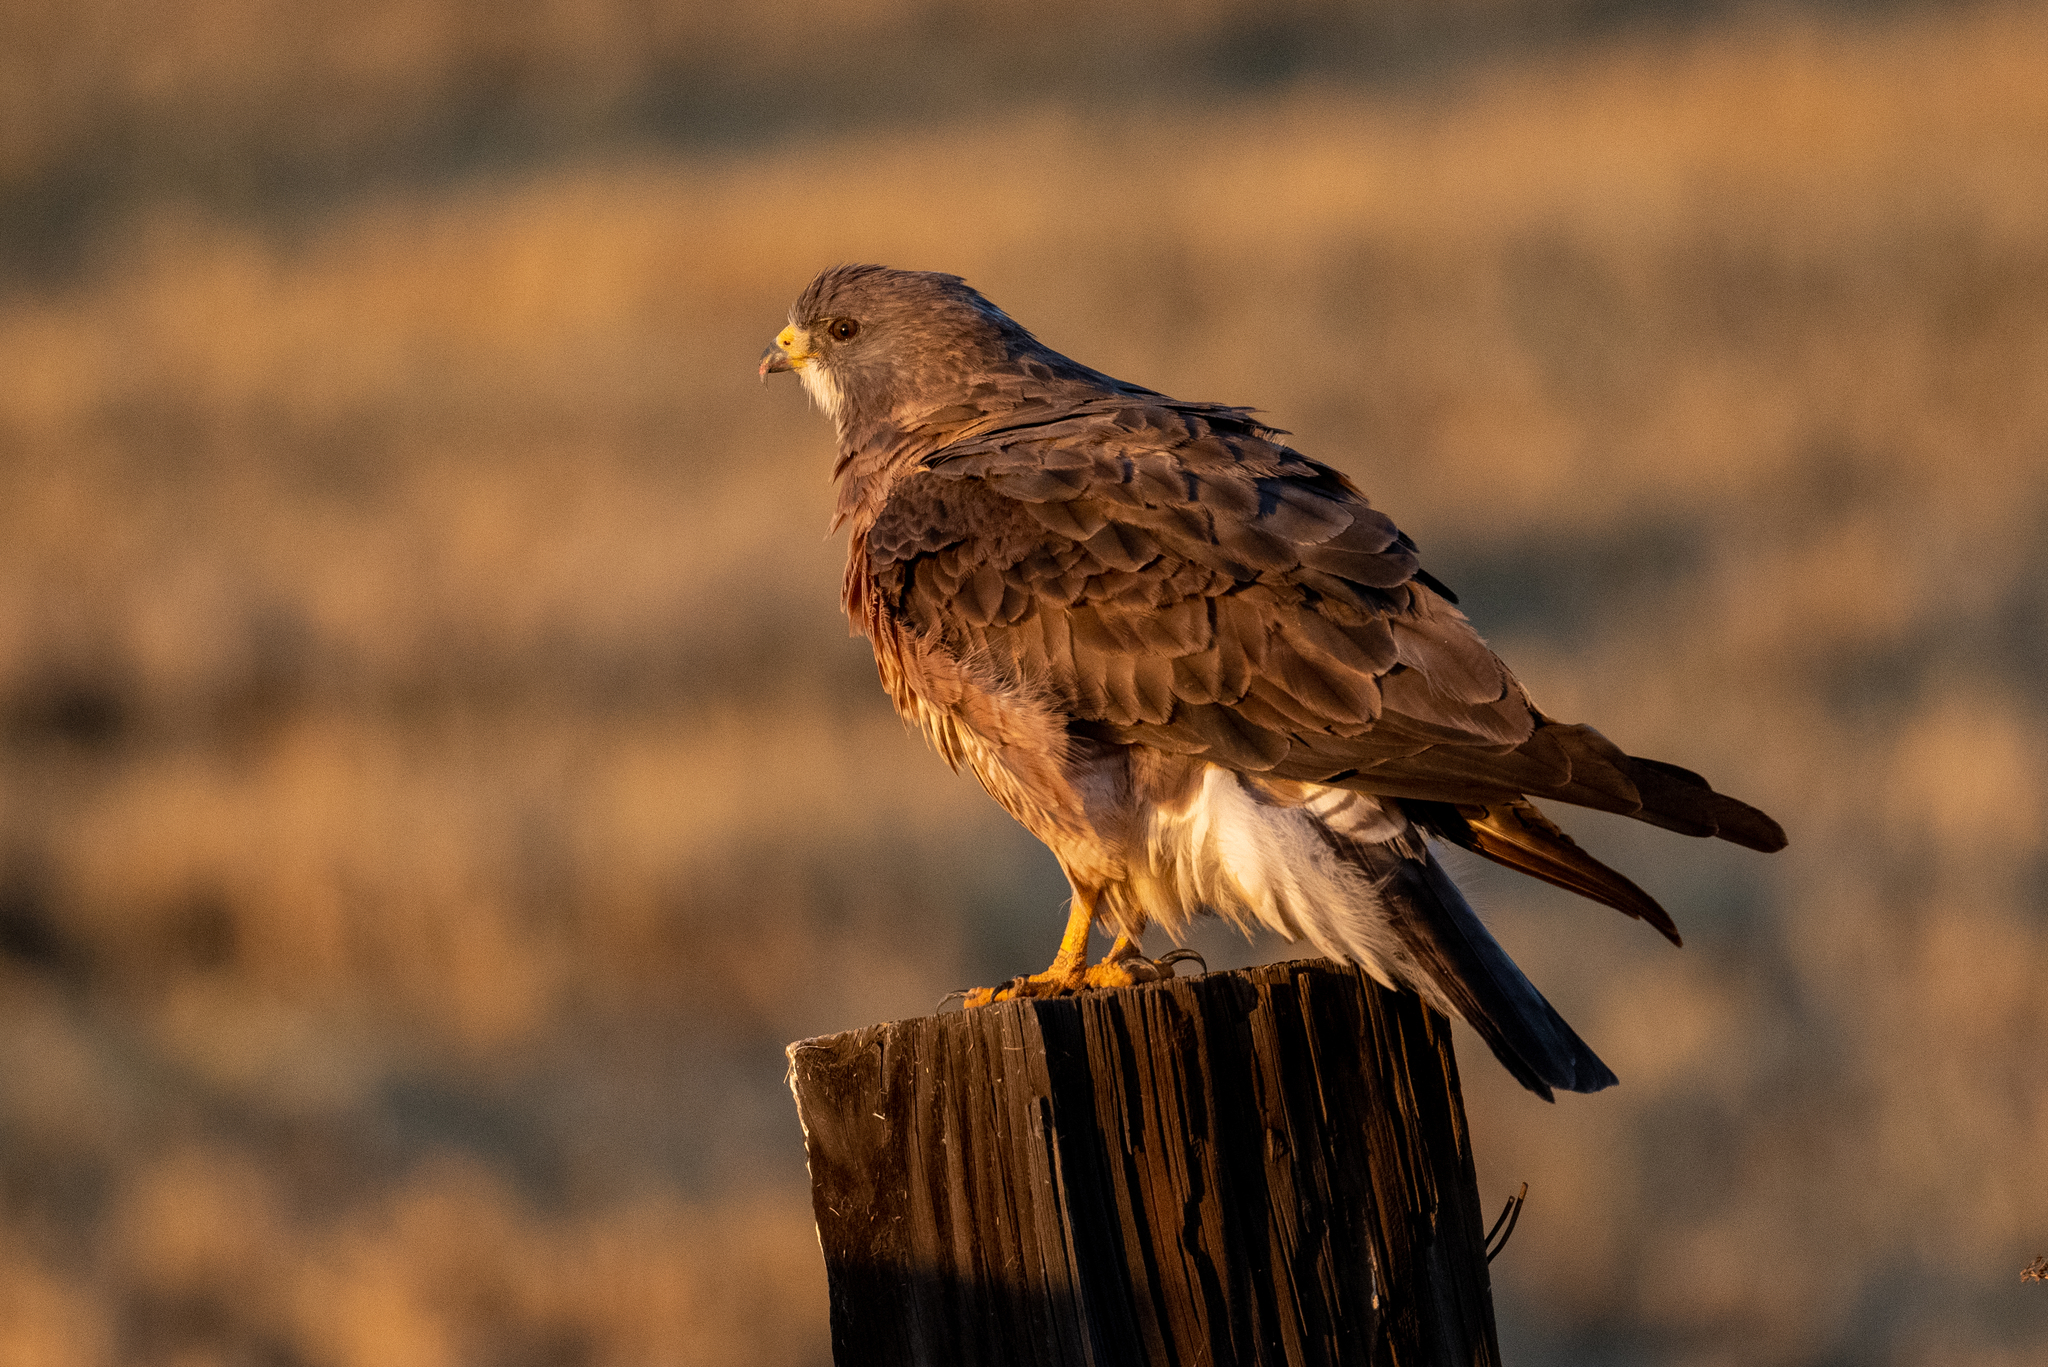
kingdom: Animalia
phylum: Chordata
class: Aves
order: Accipitriformes
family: Accipitridae
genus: Buteo
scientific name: Buteo swainsoni
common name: Swainson's hawk
